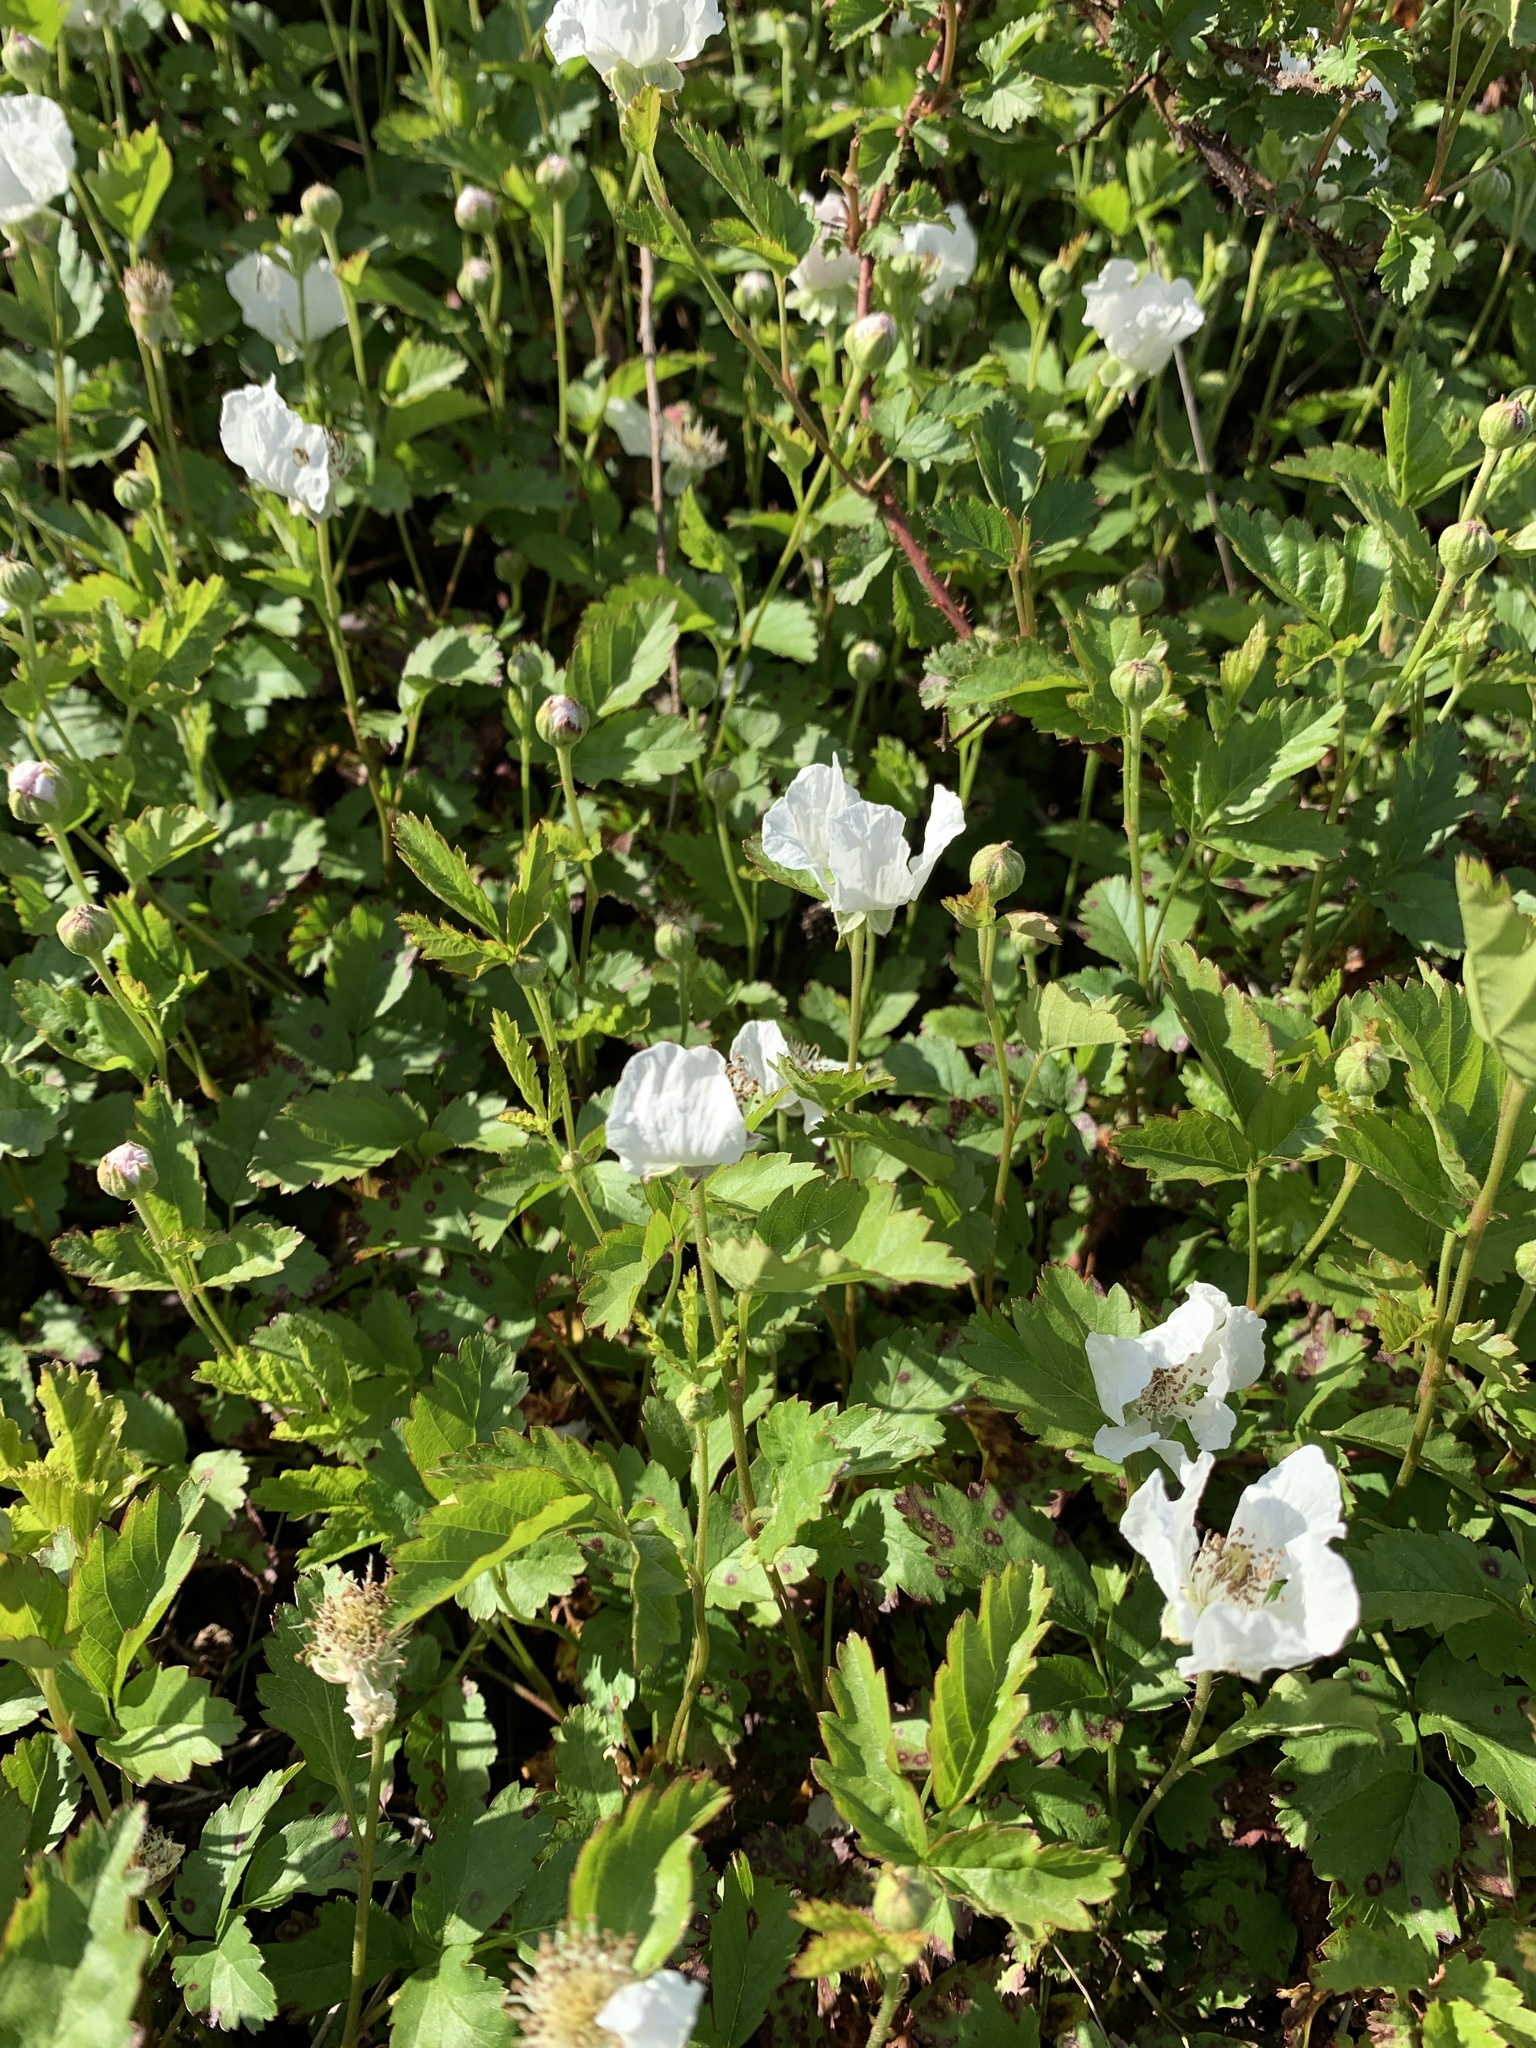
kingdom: Plantae
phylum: Tracheophyta
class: Magnoliopsida
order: Rosales
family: Rosaceae
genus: Rubus
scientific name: Rubus trivialis
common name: Southern dewberry
